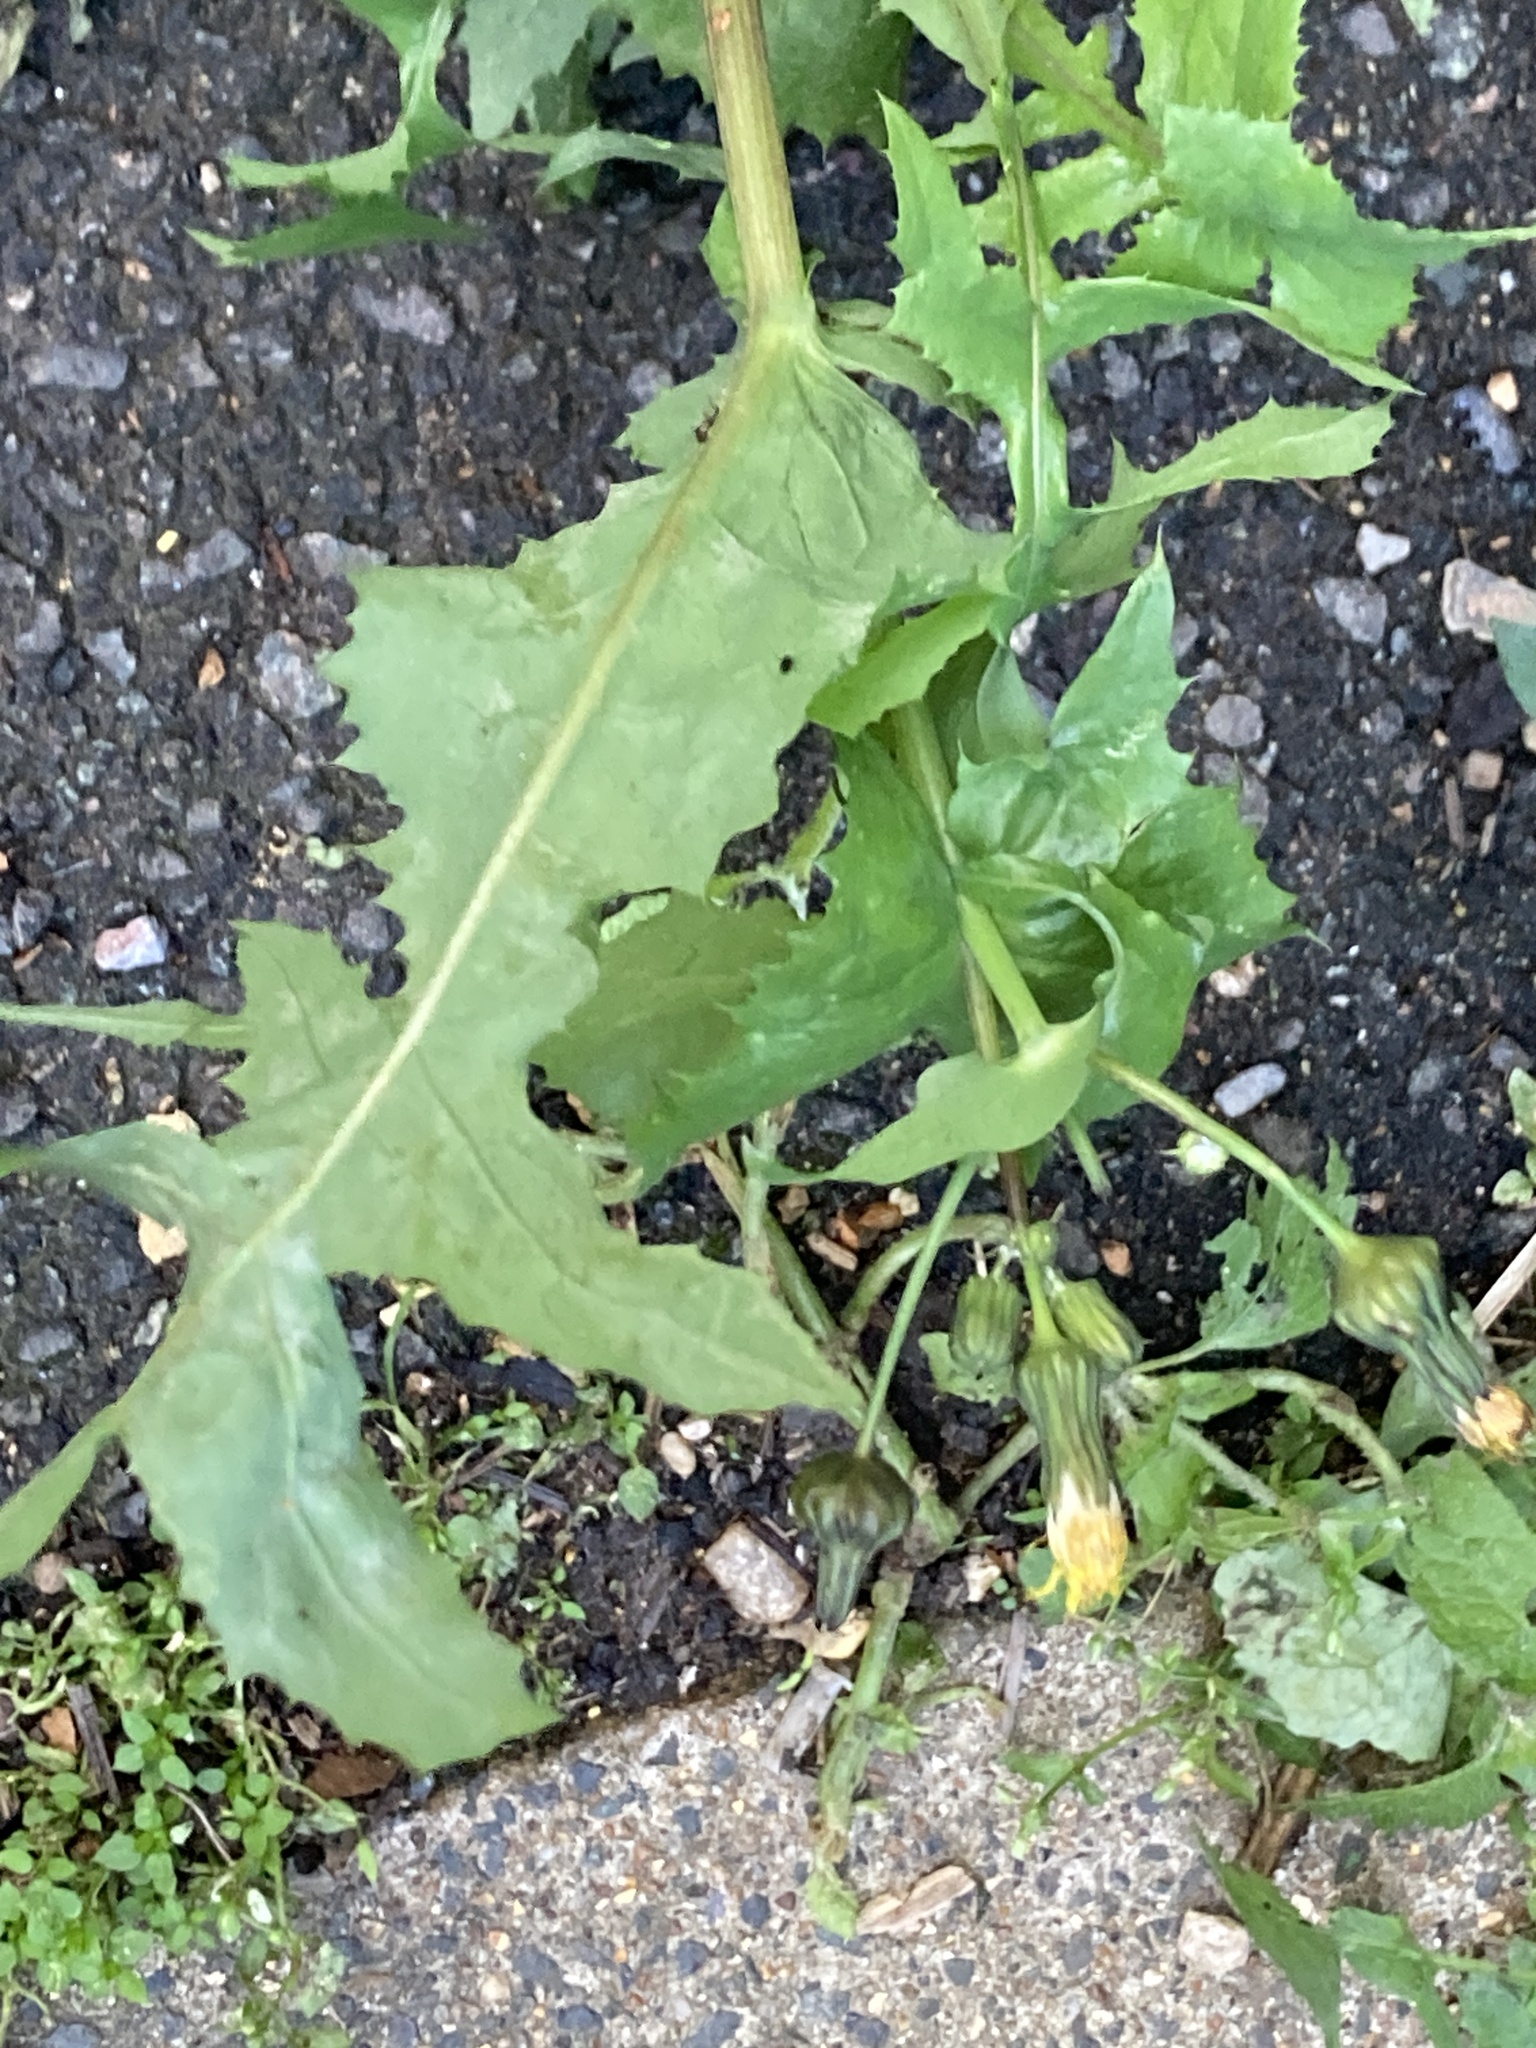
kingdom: Plantae
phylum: Tracheophyta
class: Magnoliopsida
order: Asterales
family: Asteraceae
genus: Sonchus
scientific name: Sonchus oleraceus
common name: Common sowthistle
